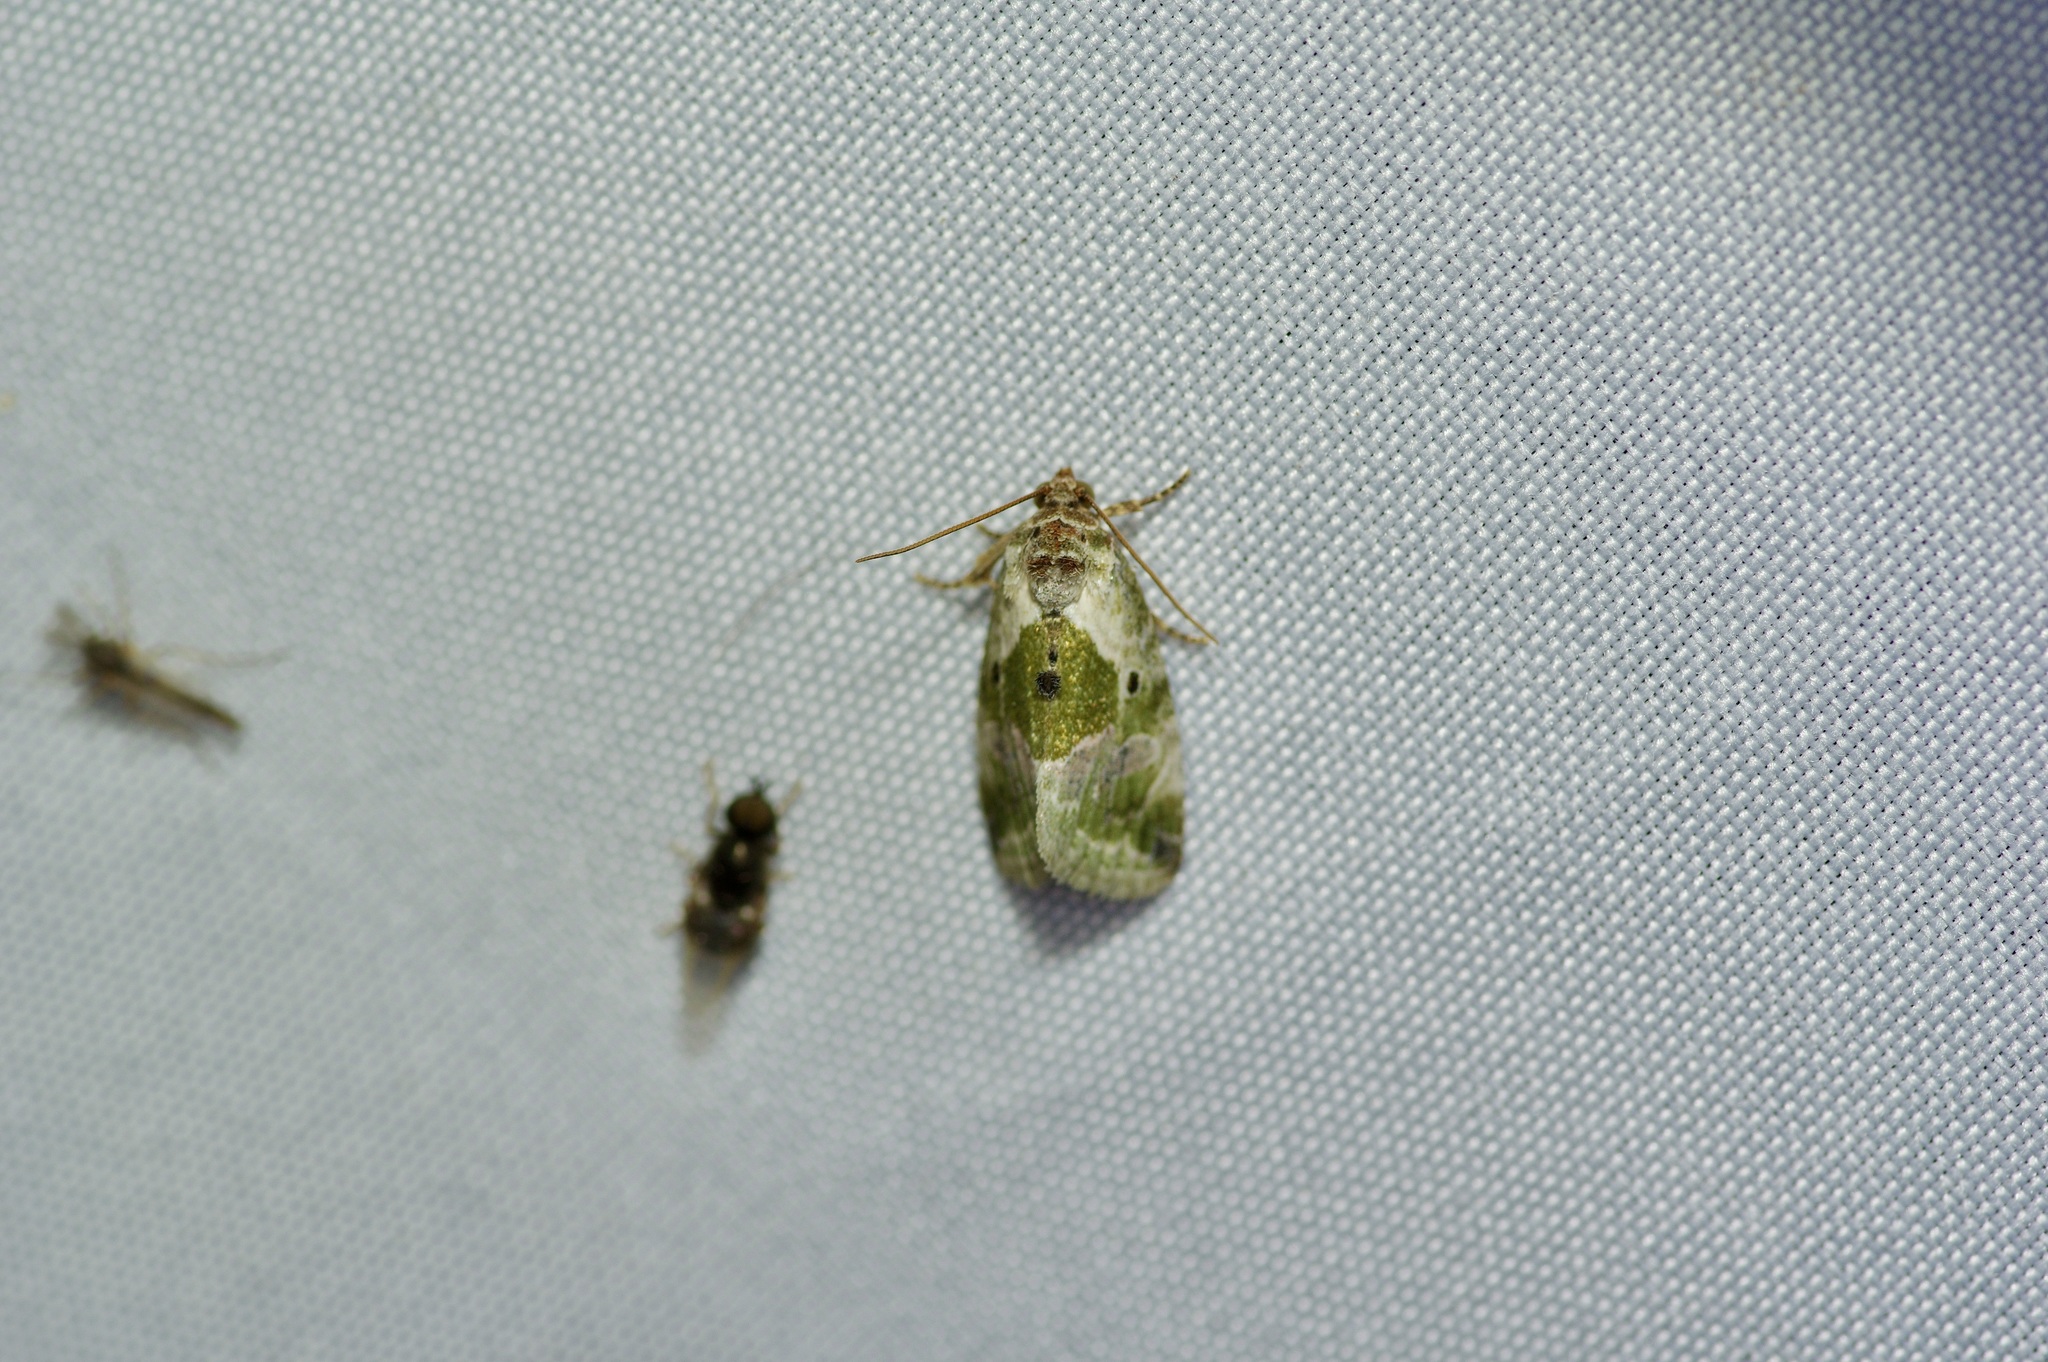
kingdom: Animalia
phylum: Arthropoda
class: Insecta
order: Lepidoptera
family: Noctuidae
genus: Maliattha
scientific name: Maliattha synochitis
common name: Black-dotted glyph
